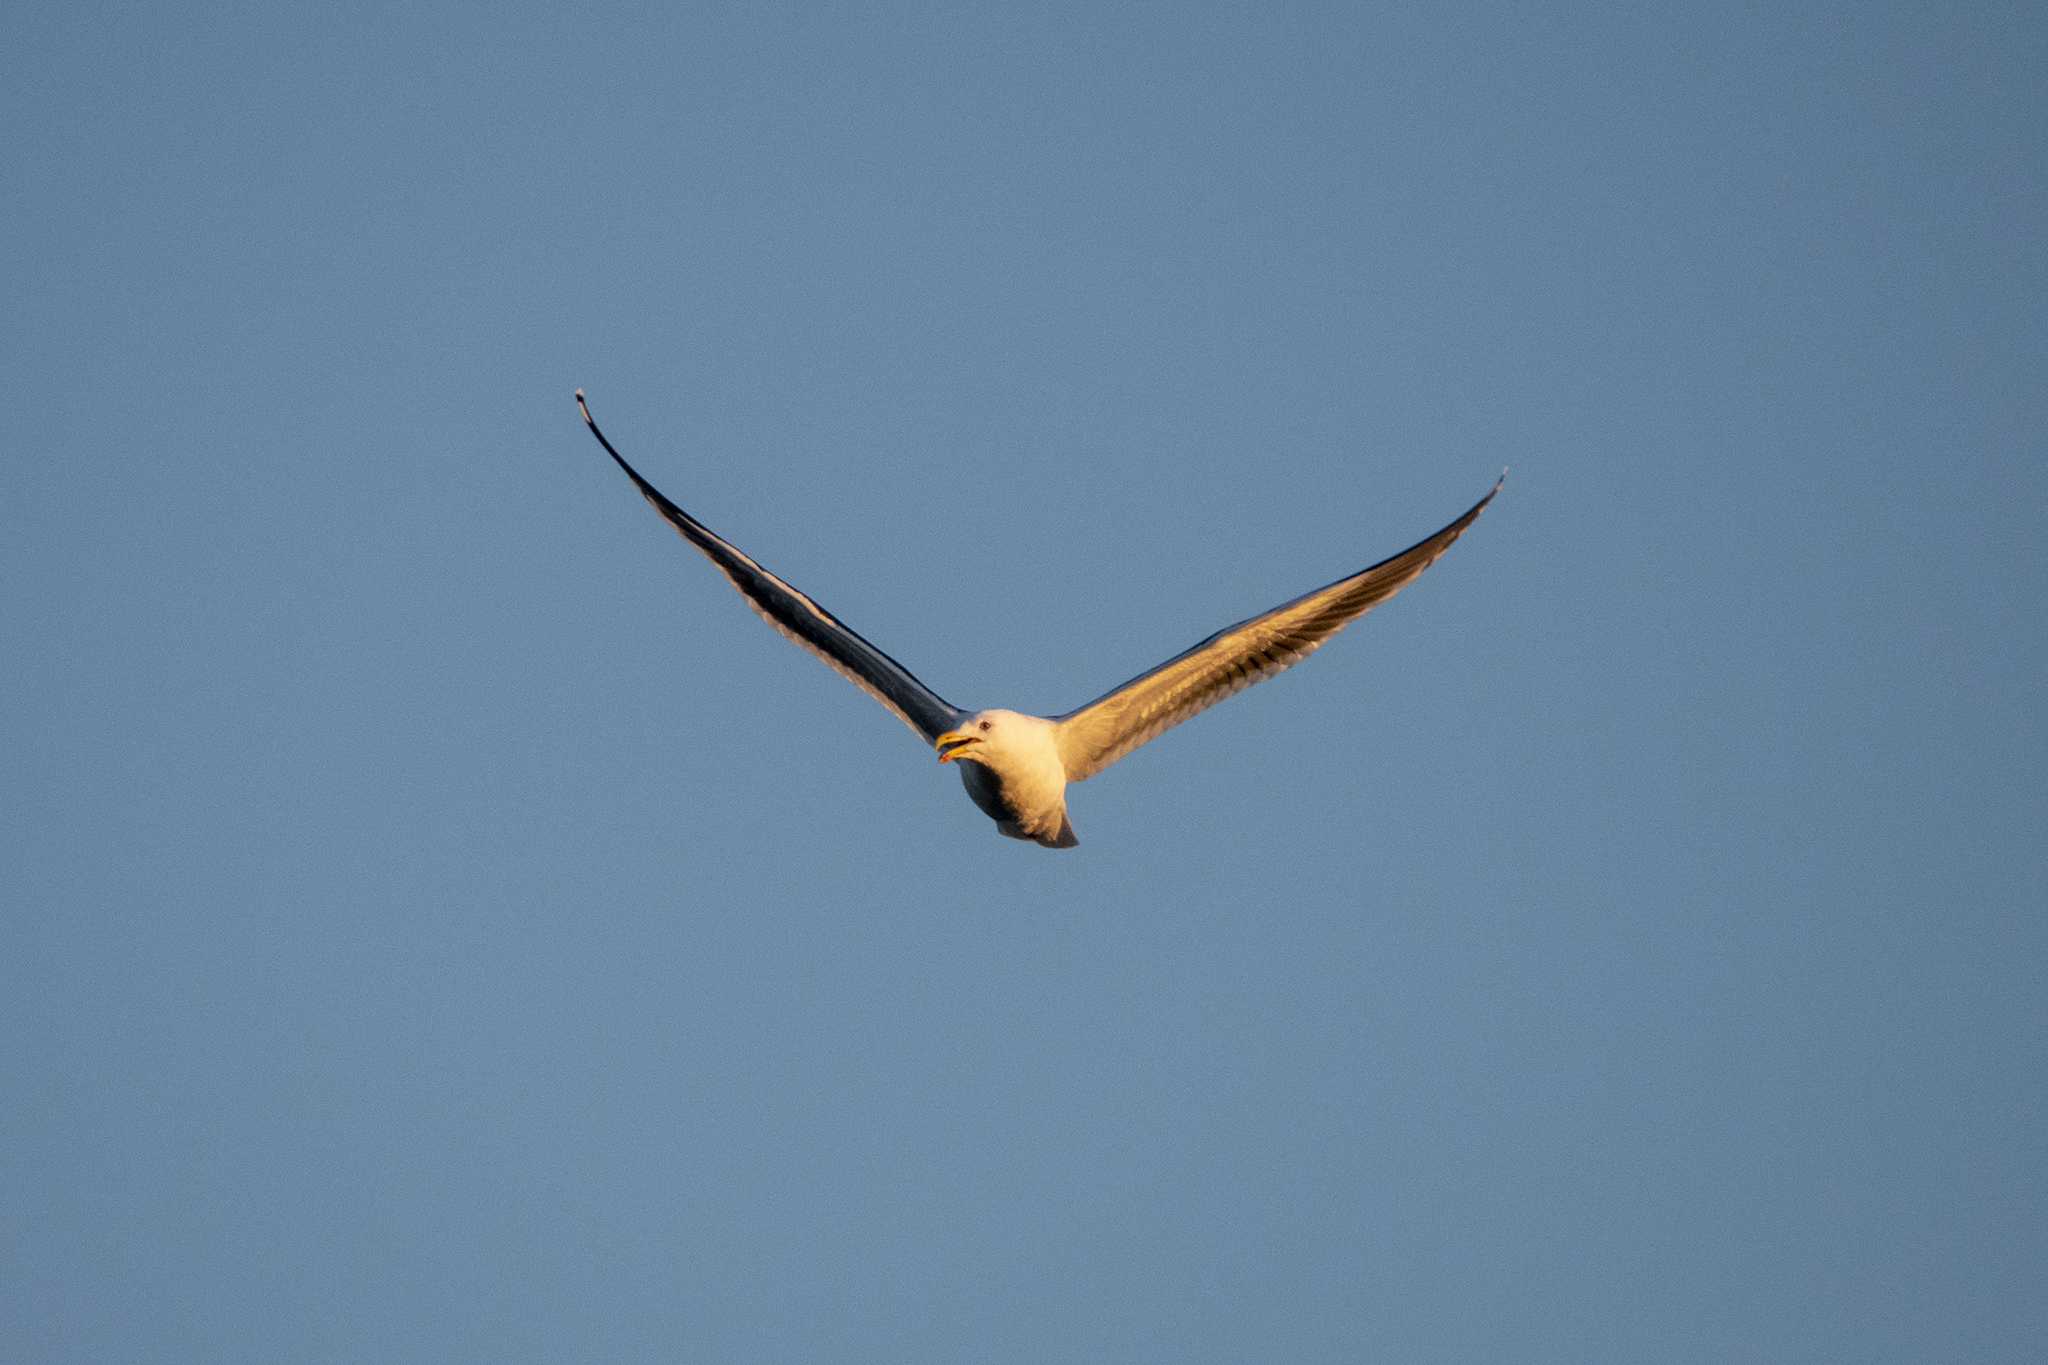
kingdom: Animalia
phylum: Chordata
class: Aves
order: Charadriiformes
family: Laridae
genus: Larus
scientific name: Larus dominicanus
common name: Kelp gull
